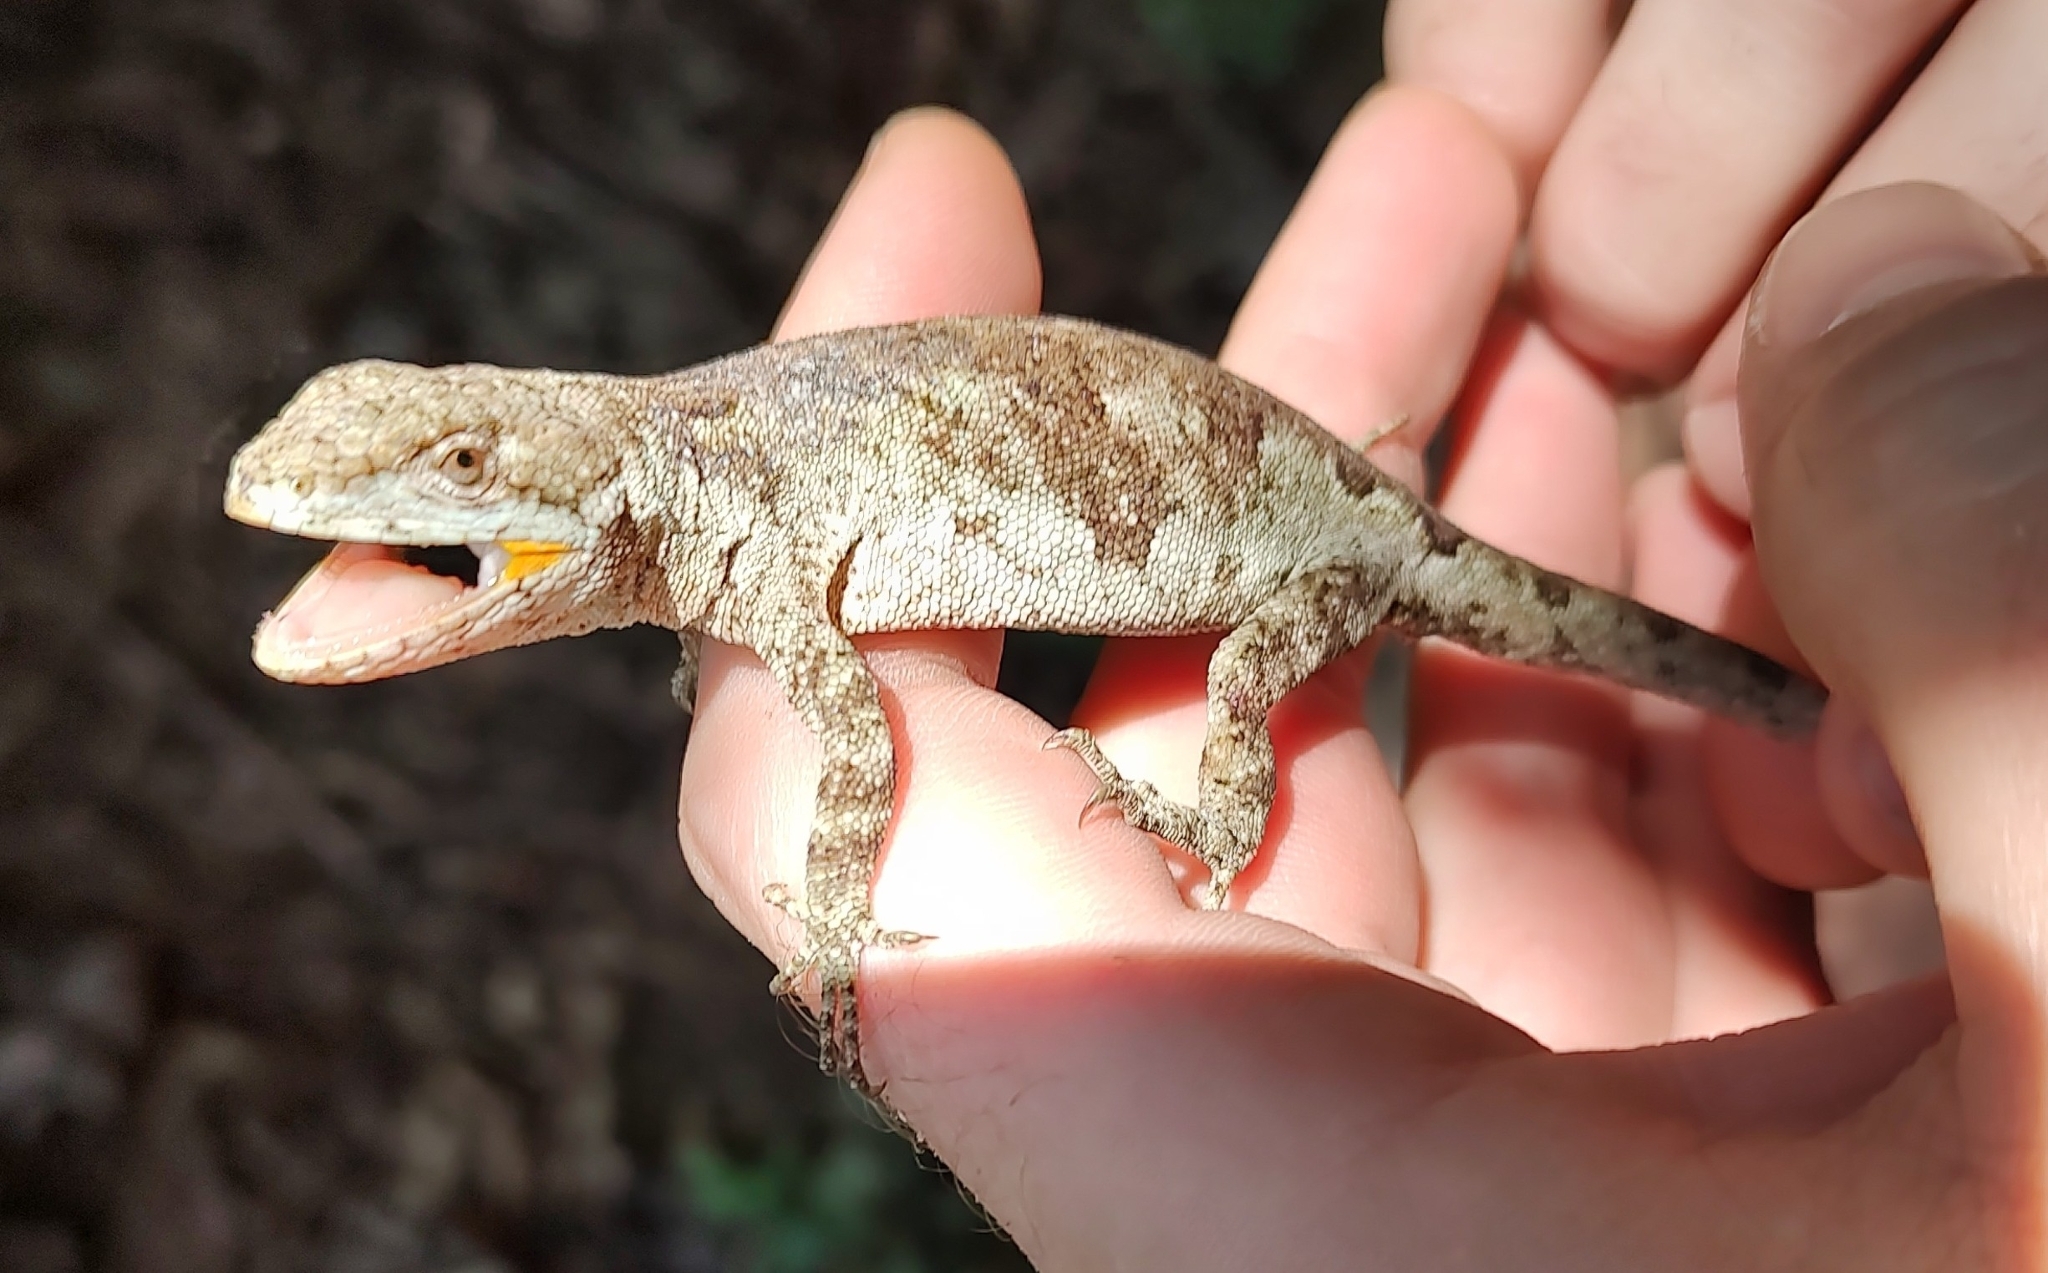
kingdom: Animalia
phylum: Chordata
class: Squamata
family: Leiosauridae
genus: Urostrophus
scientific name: Urostrophus vautieri
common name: Brazilian steppe iguana
